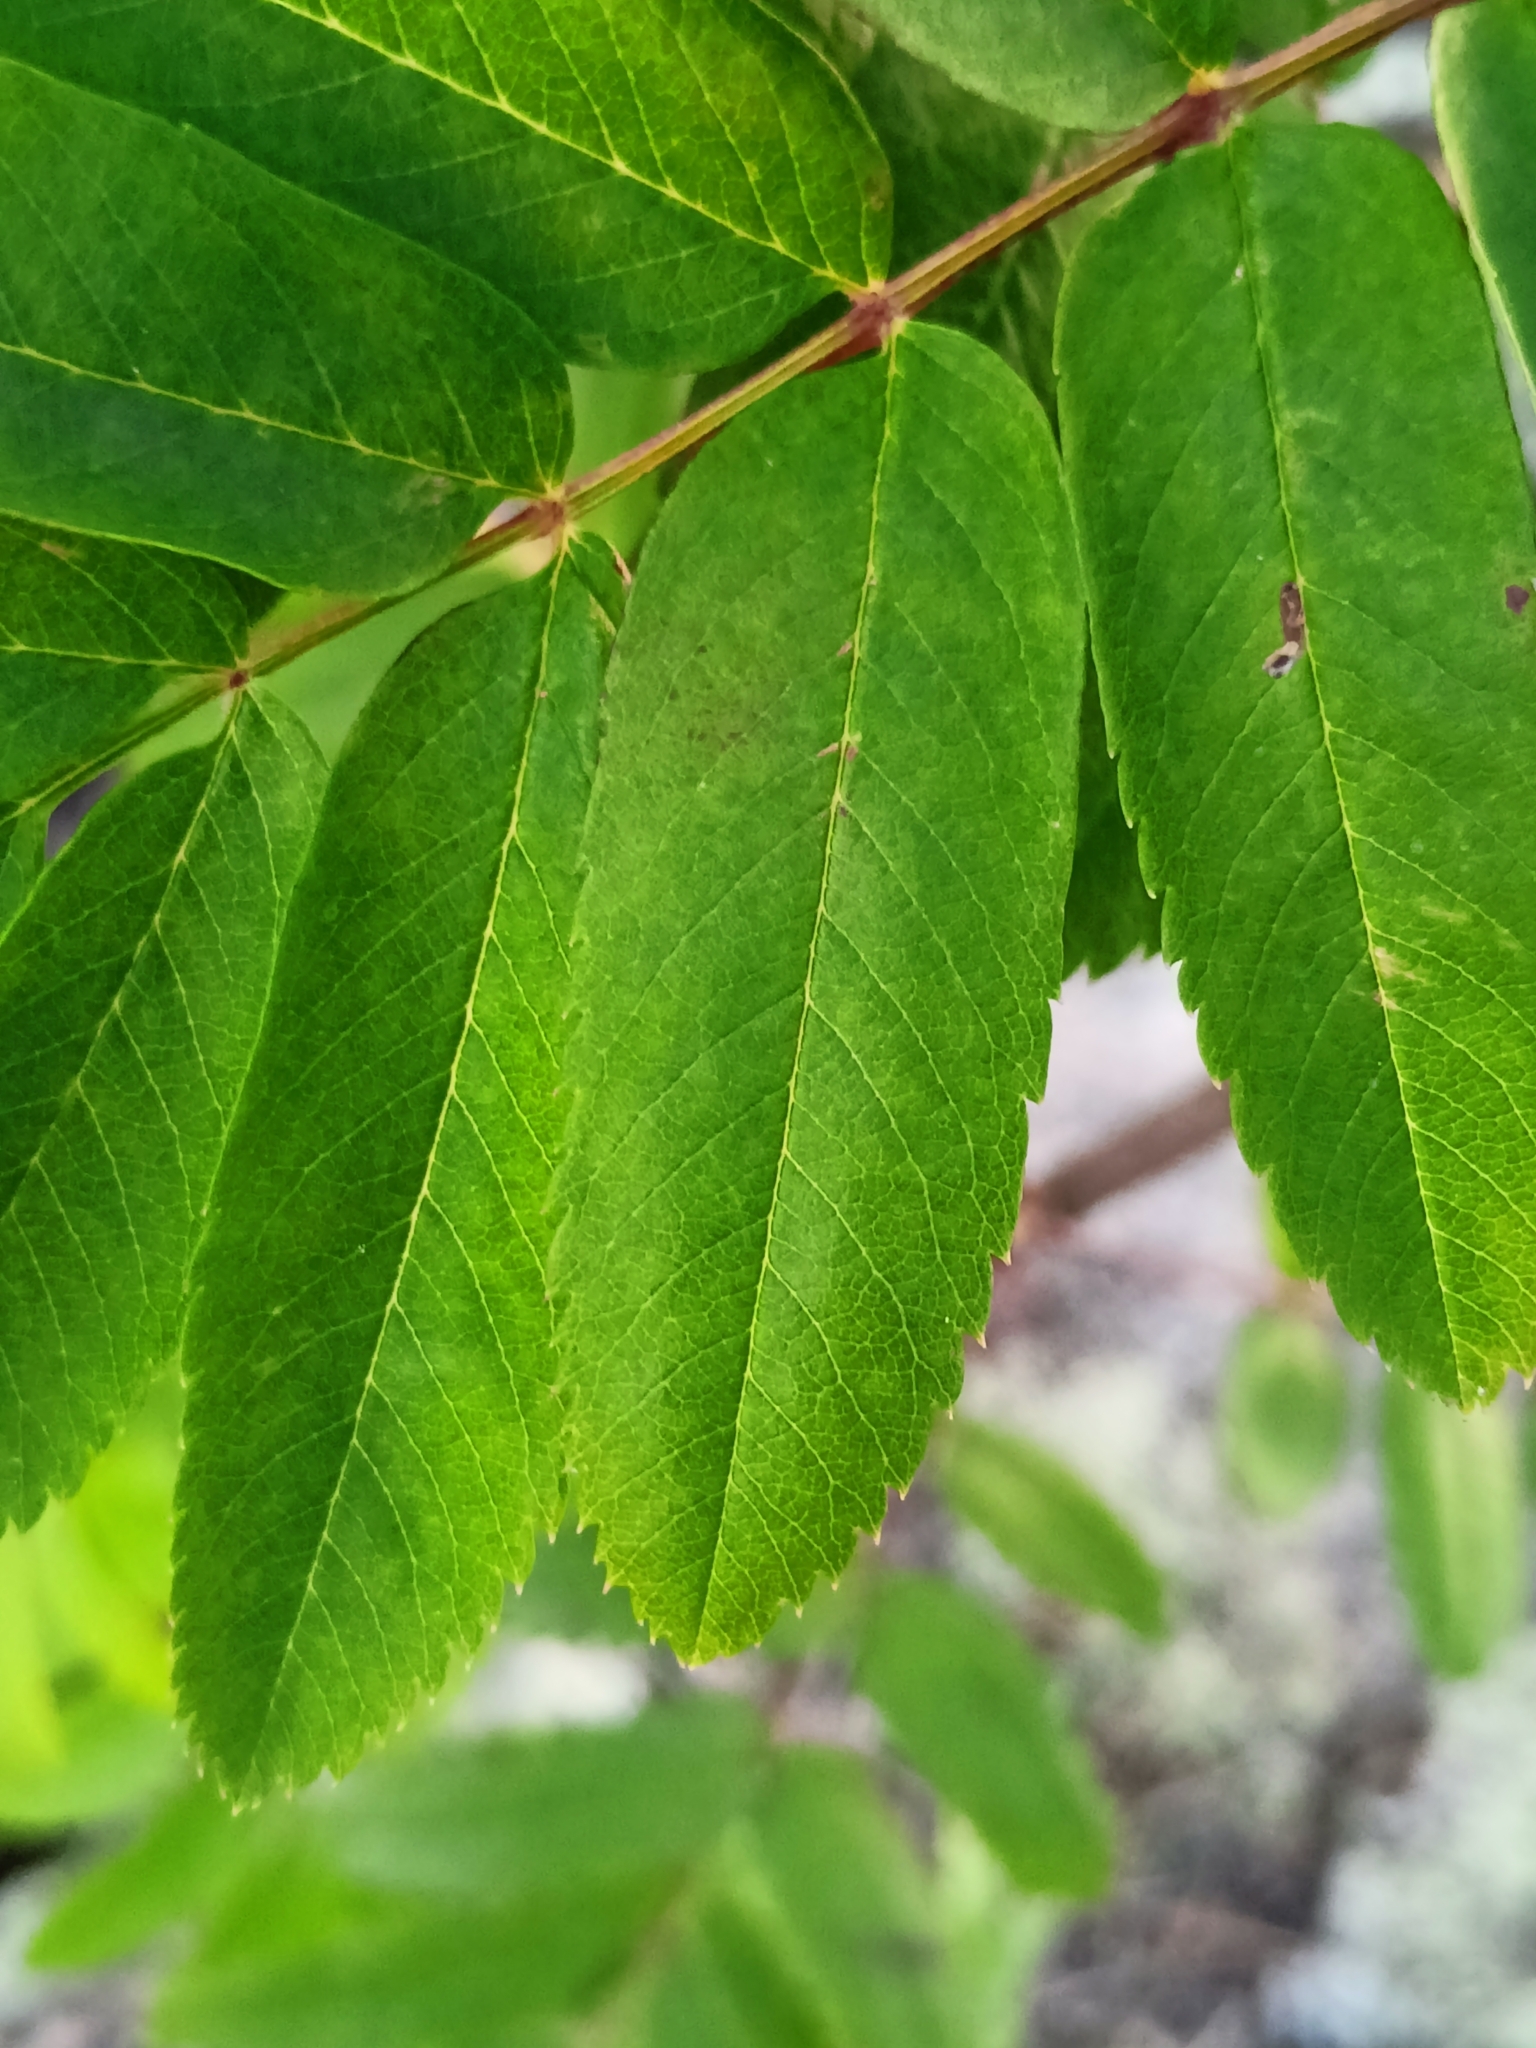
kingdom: Plantae
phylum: Tracheophyta
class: Magnoliopsida
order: Rosales
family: Rosaceae
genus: Sorbus
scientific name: Sorbus aucuparia
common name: Rowan
